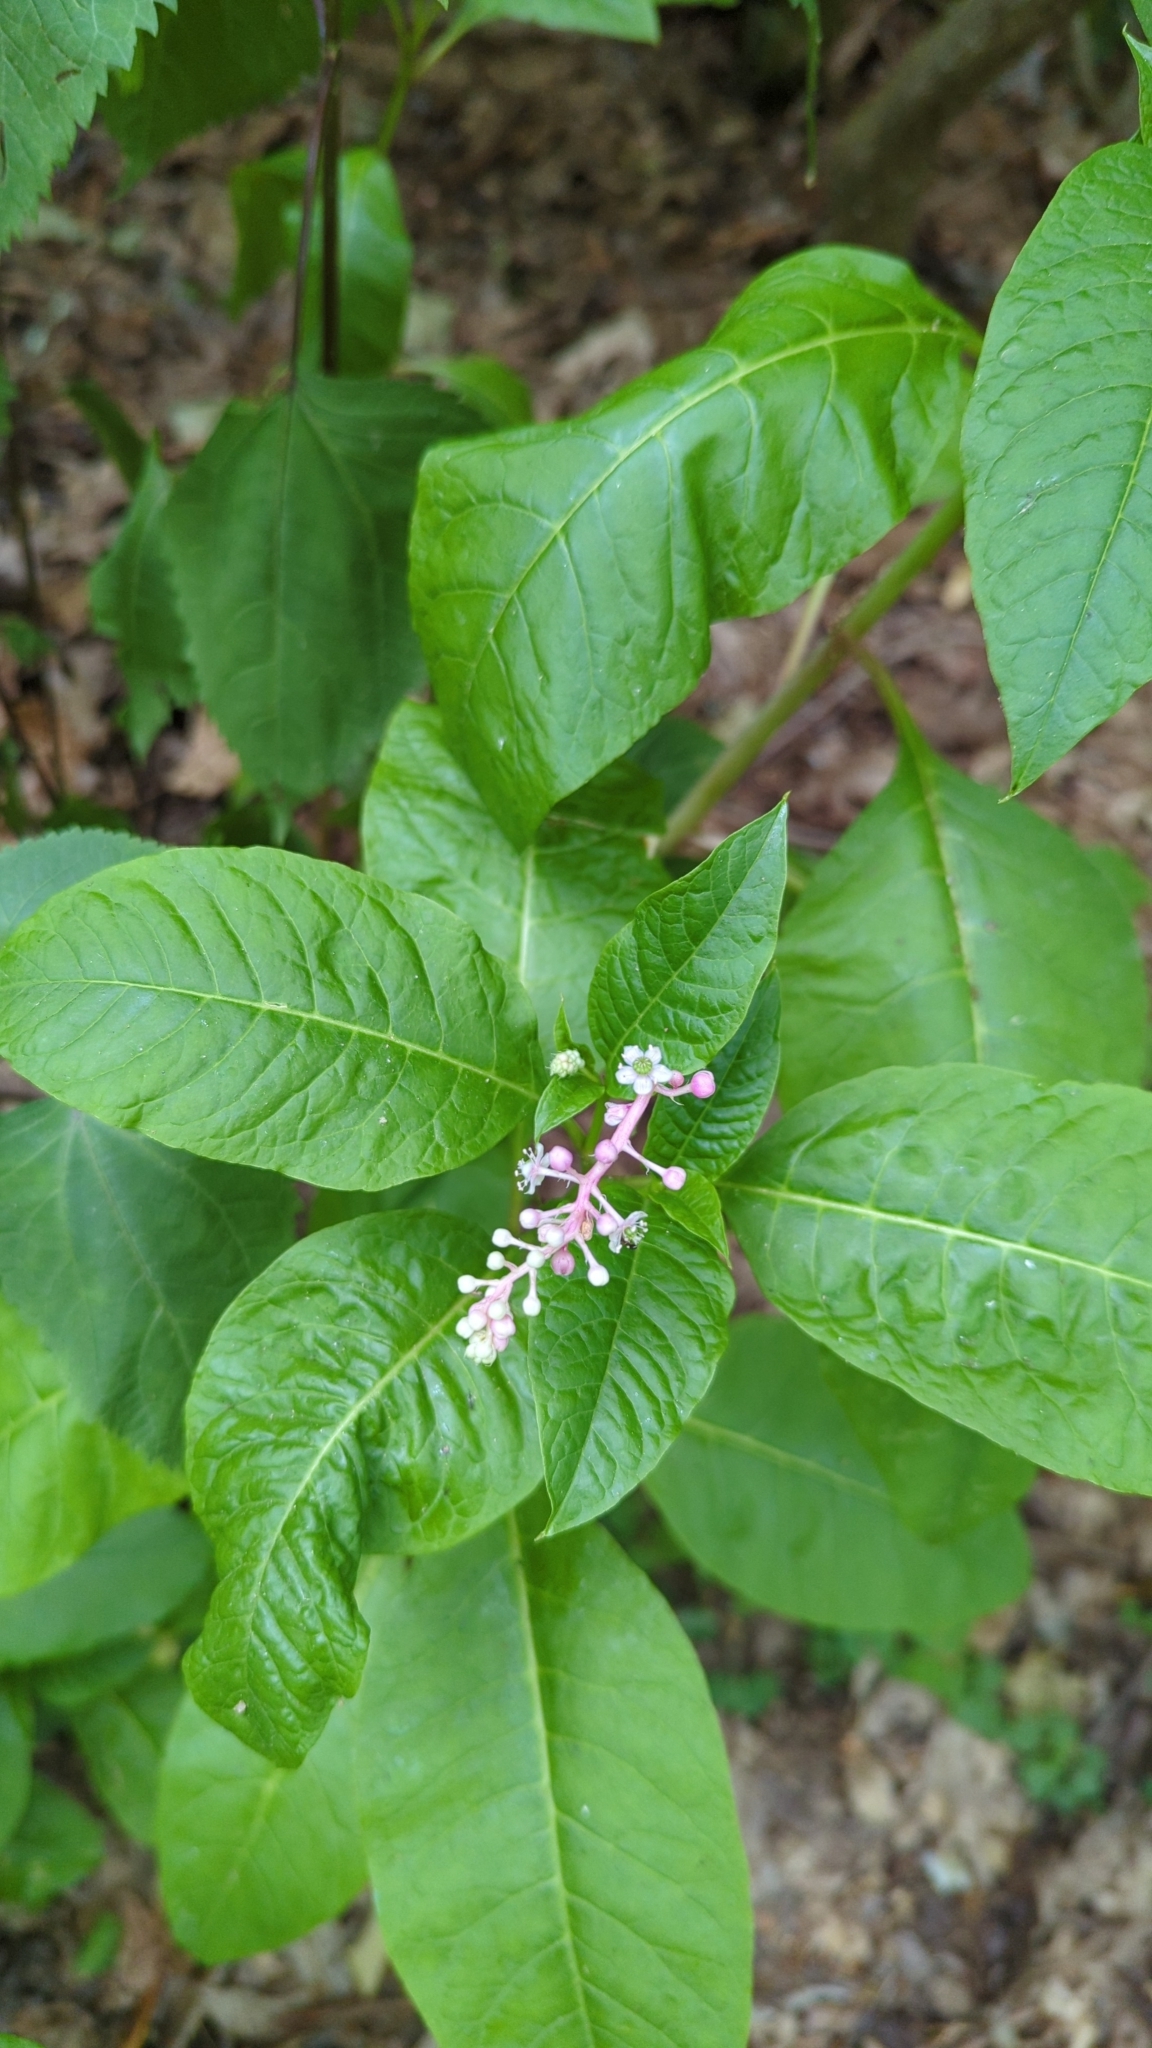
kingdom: Plantae
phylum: Tracheophyta
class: Magnoliopsida
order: Caryophyllales
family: Phytolaccaceae
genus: Phytolacca
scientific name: Phytolacca americana
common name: American pokeweed
